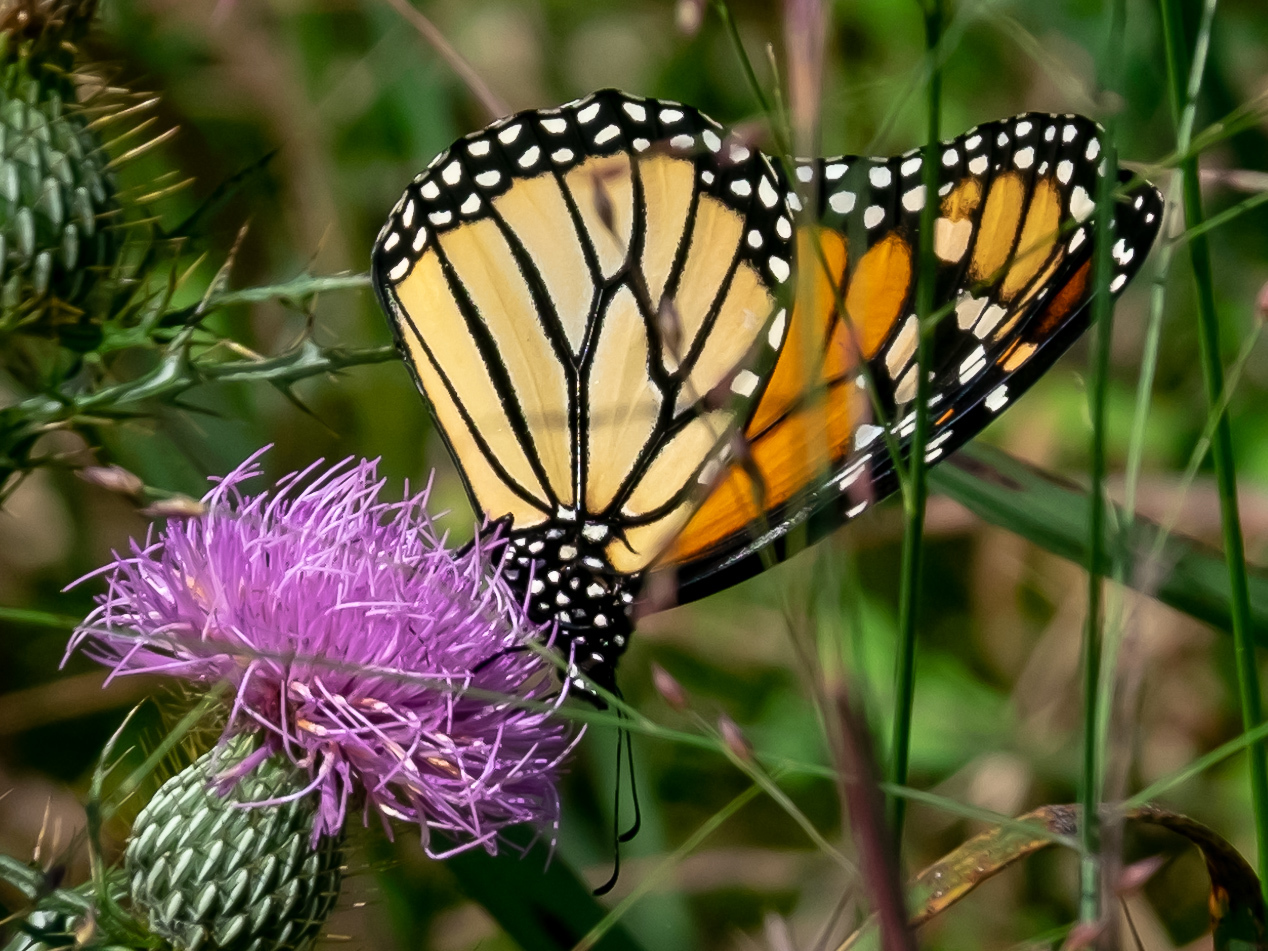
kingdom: Animalia
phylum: Arthropoda
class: Insecta
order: Lepidoptera
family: Nymphalidae
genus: Danaus
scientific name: Danaus plexippus
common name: Monarch
